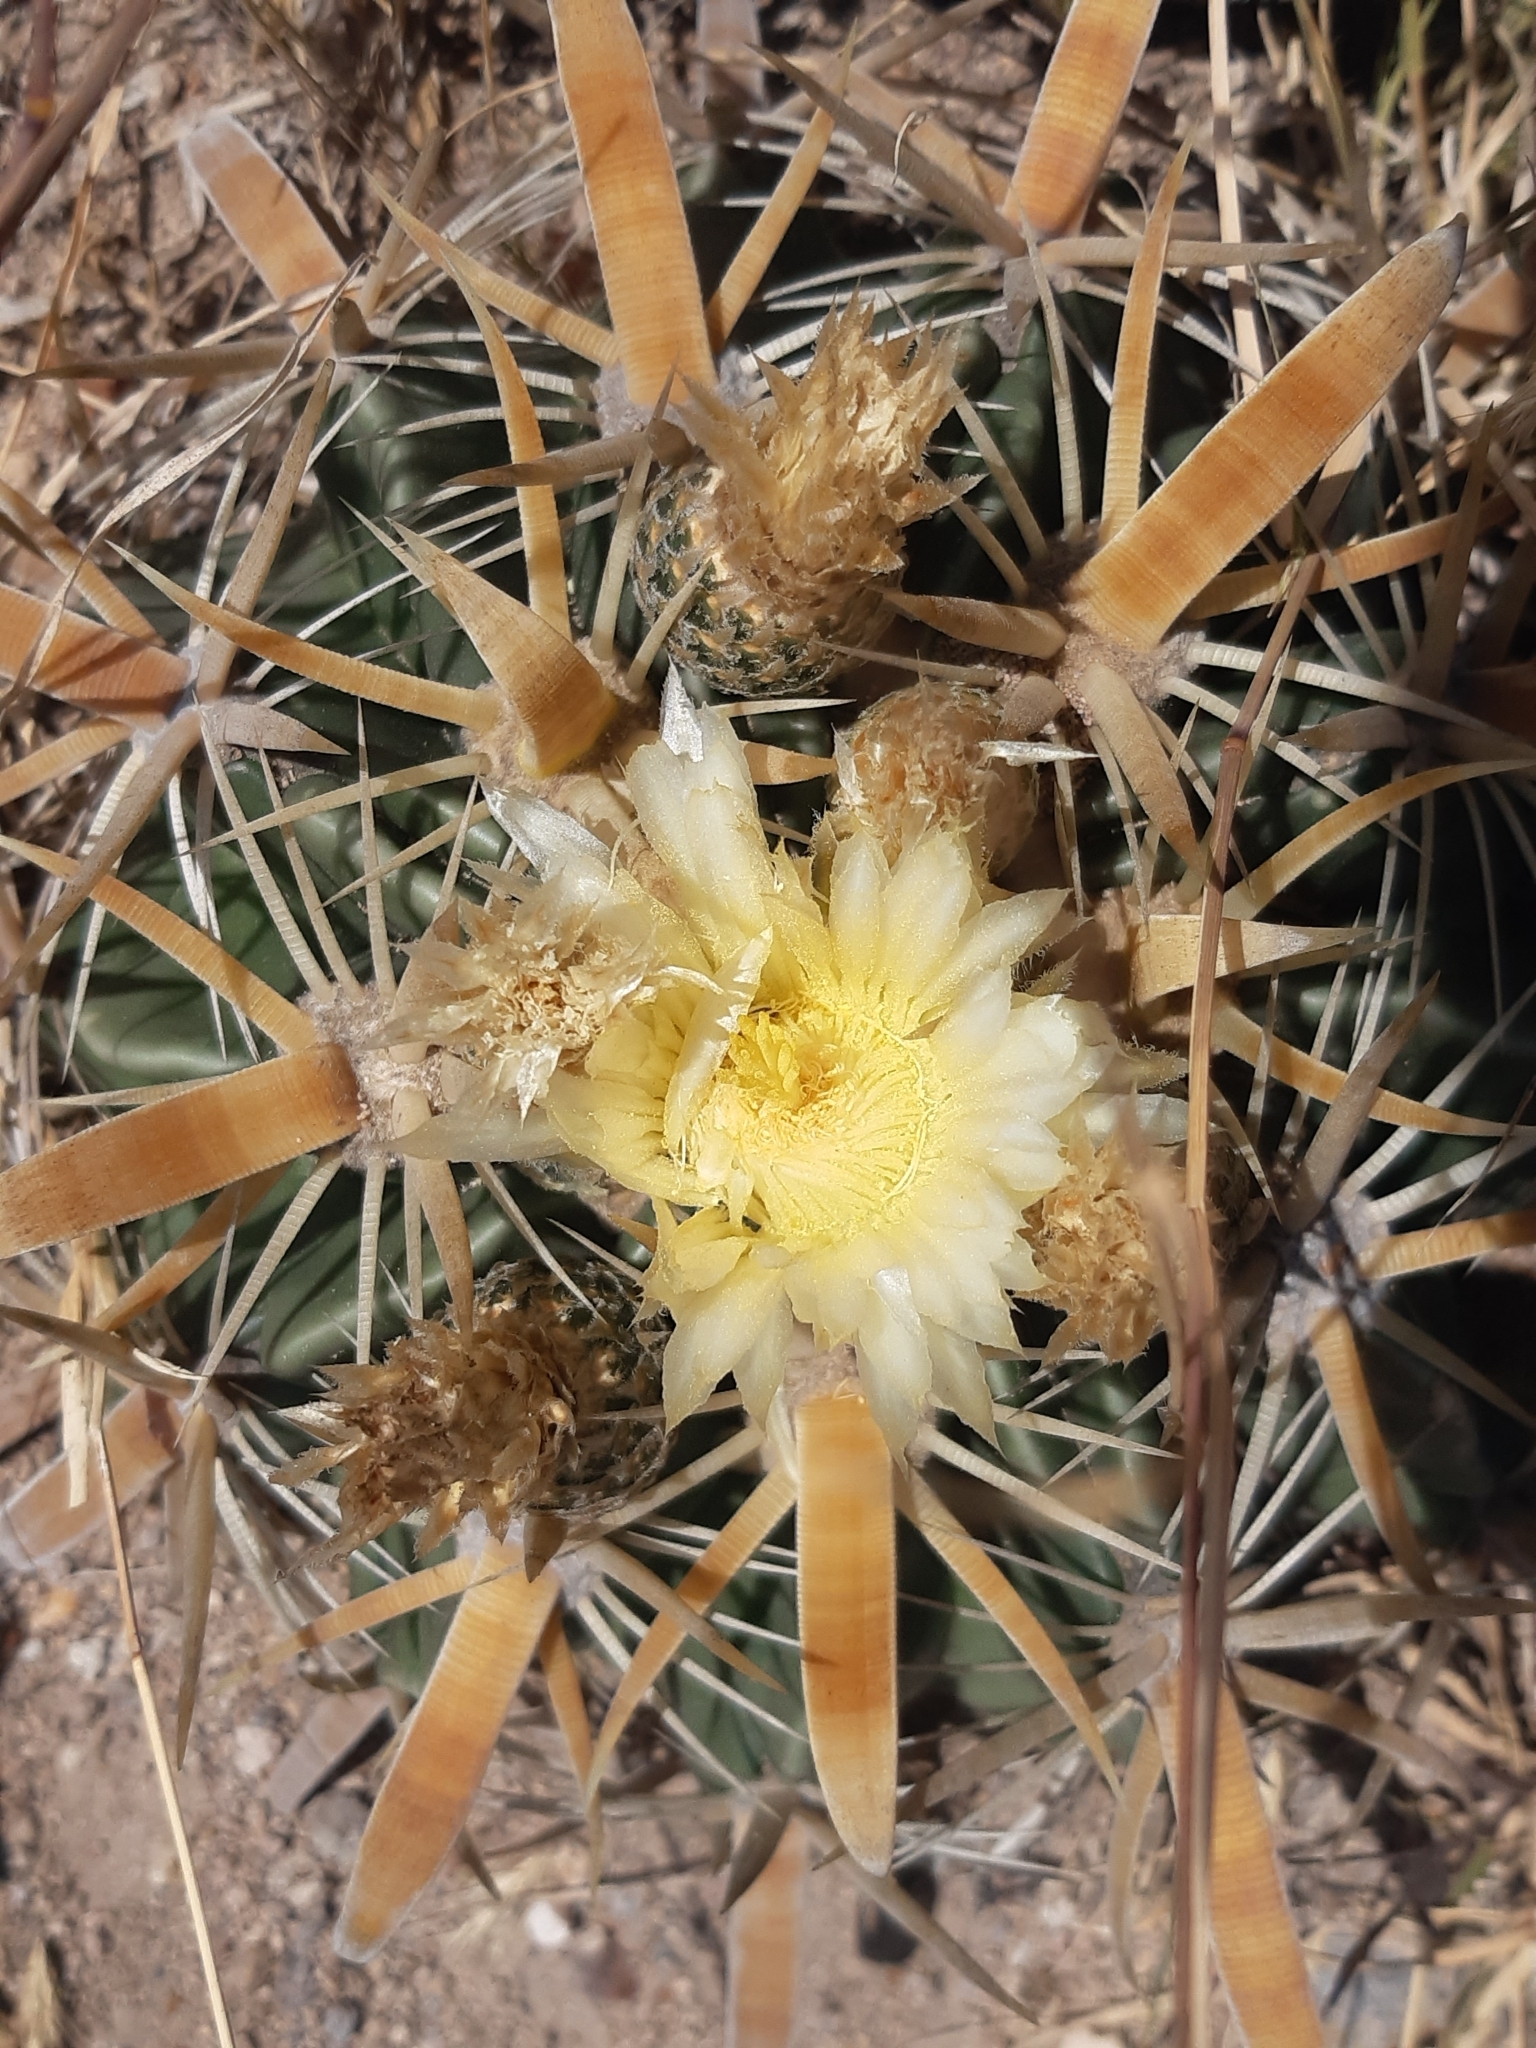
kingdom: Plantae
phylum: Tracheophyta
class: Magnoliopsida
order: Caryophyllales
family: Cactaceae
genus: Ferocactus
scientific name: Ferocactus latispinus
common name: Devil's-tongue cactus
